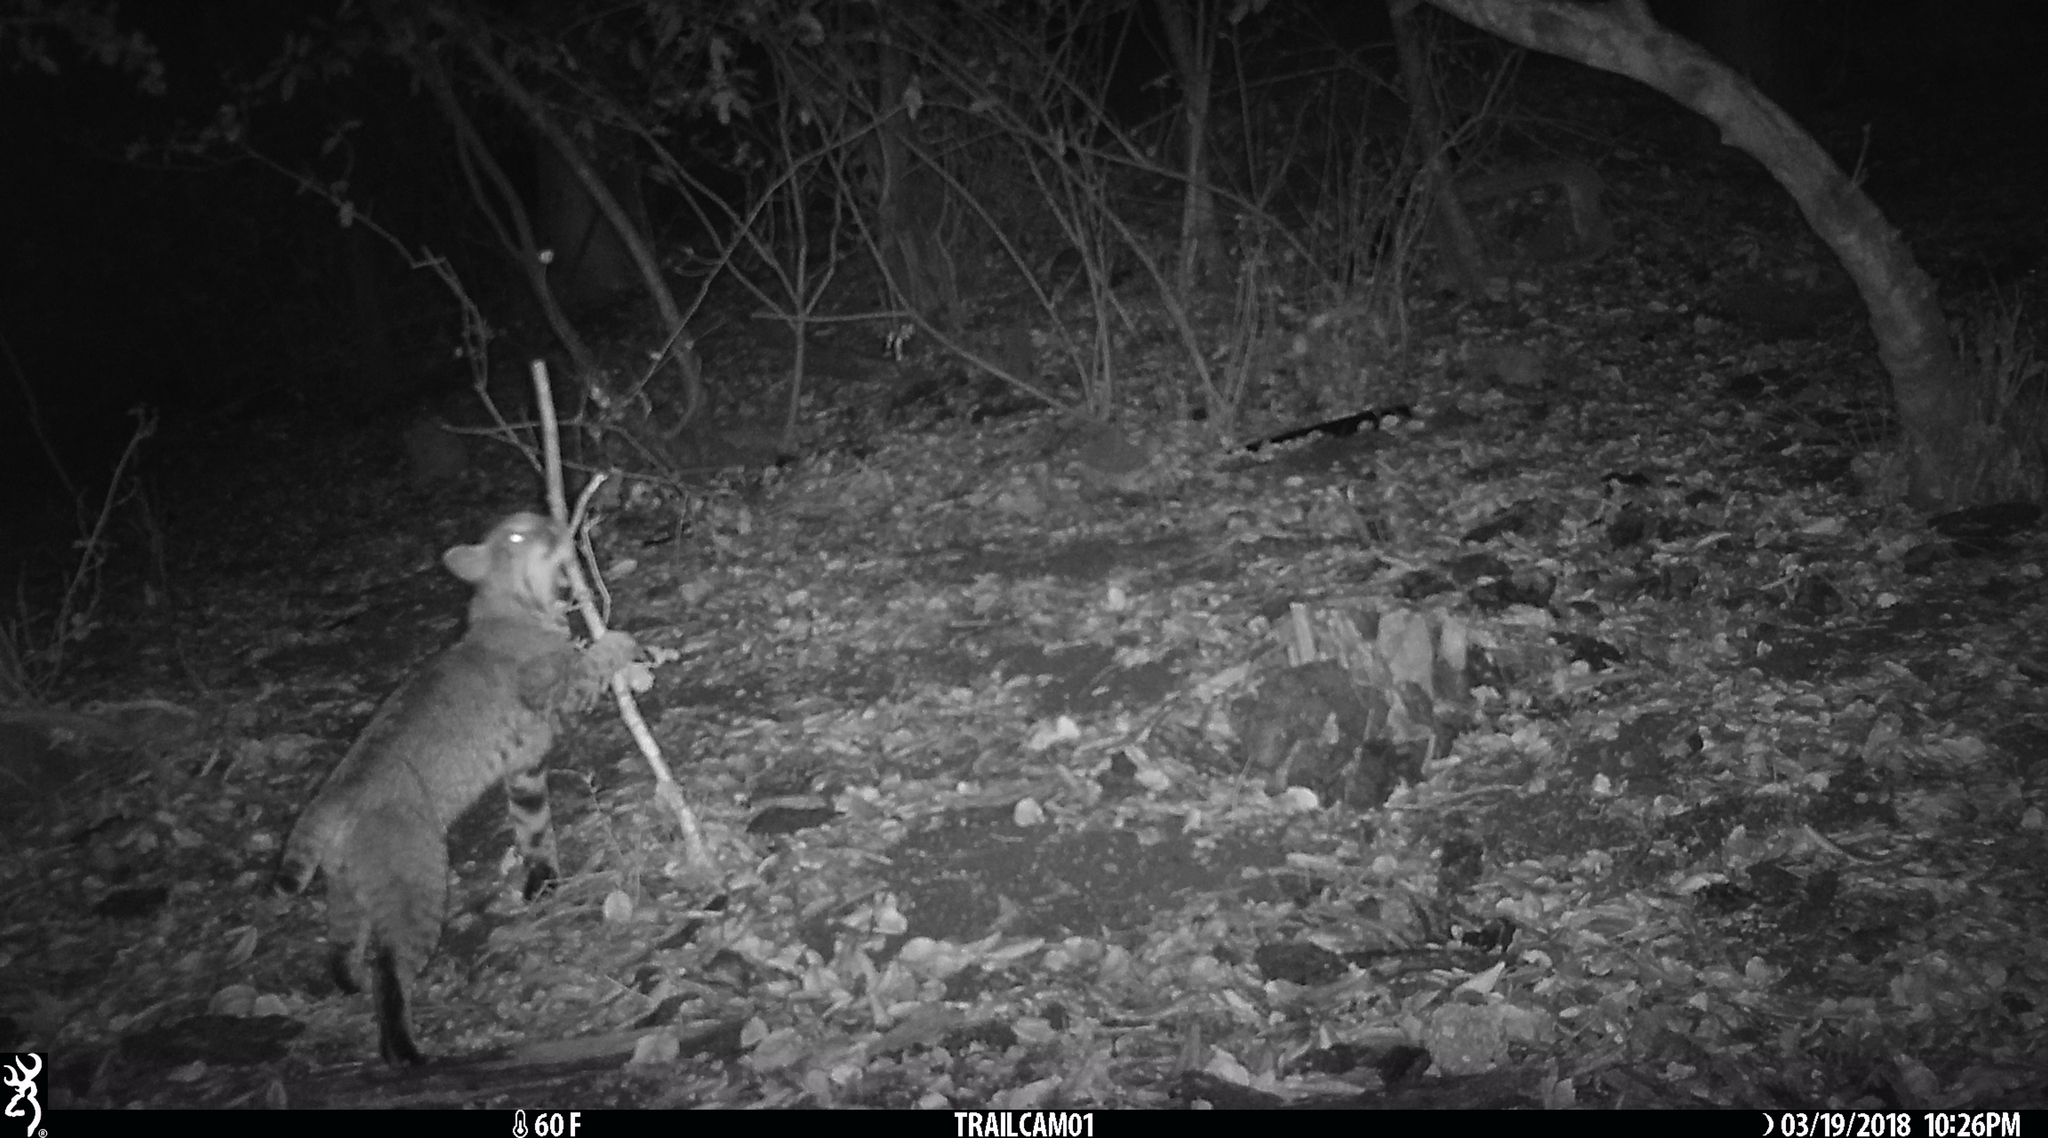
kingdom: Animalia
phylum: Chordata
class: Mammalia
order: Carnivora
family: Felidae
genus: Lynx
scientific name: Lynx rufus
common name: Bobcat
